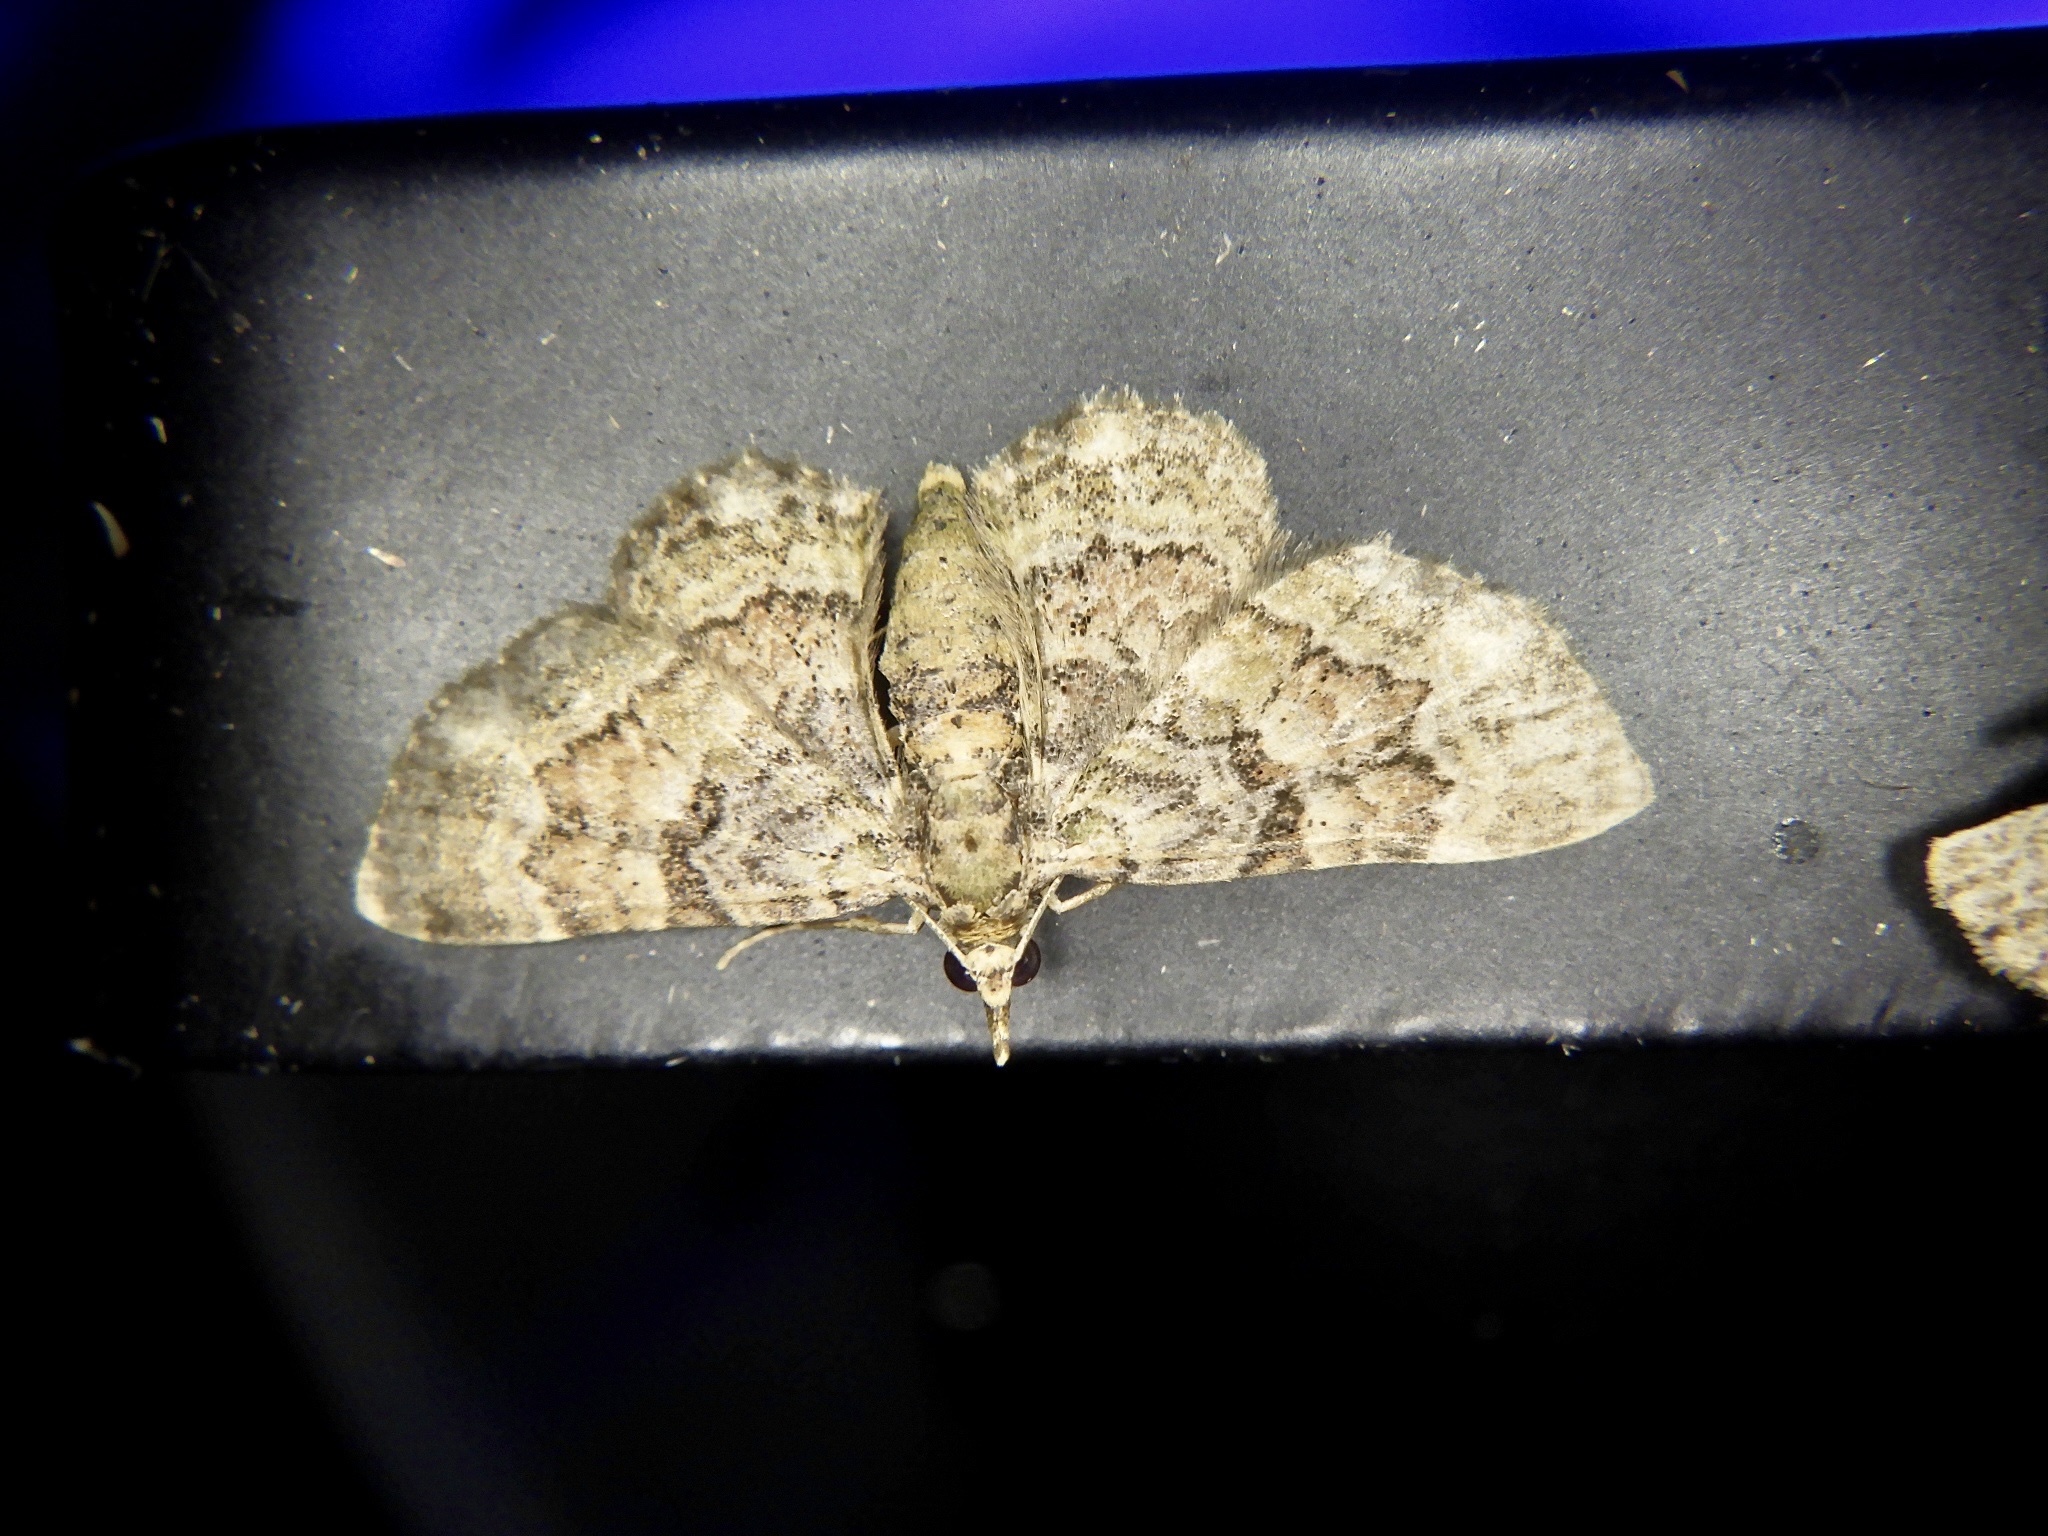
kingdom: Animalia
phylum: Arthropoda
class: Insecta
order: Lepidoptera
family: Geometridae
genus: Gymnoscelis
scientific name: Gymnoscelis esakii
